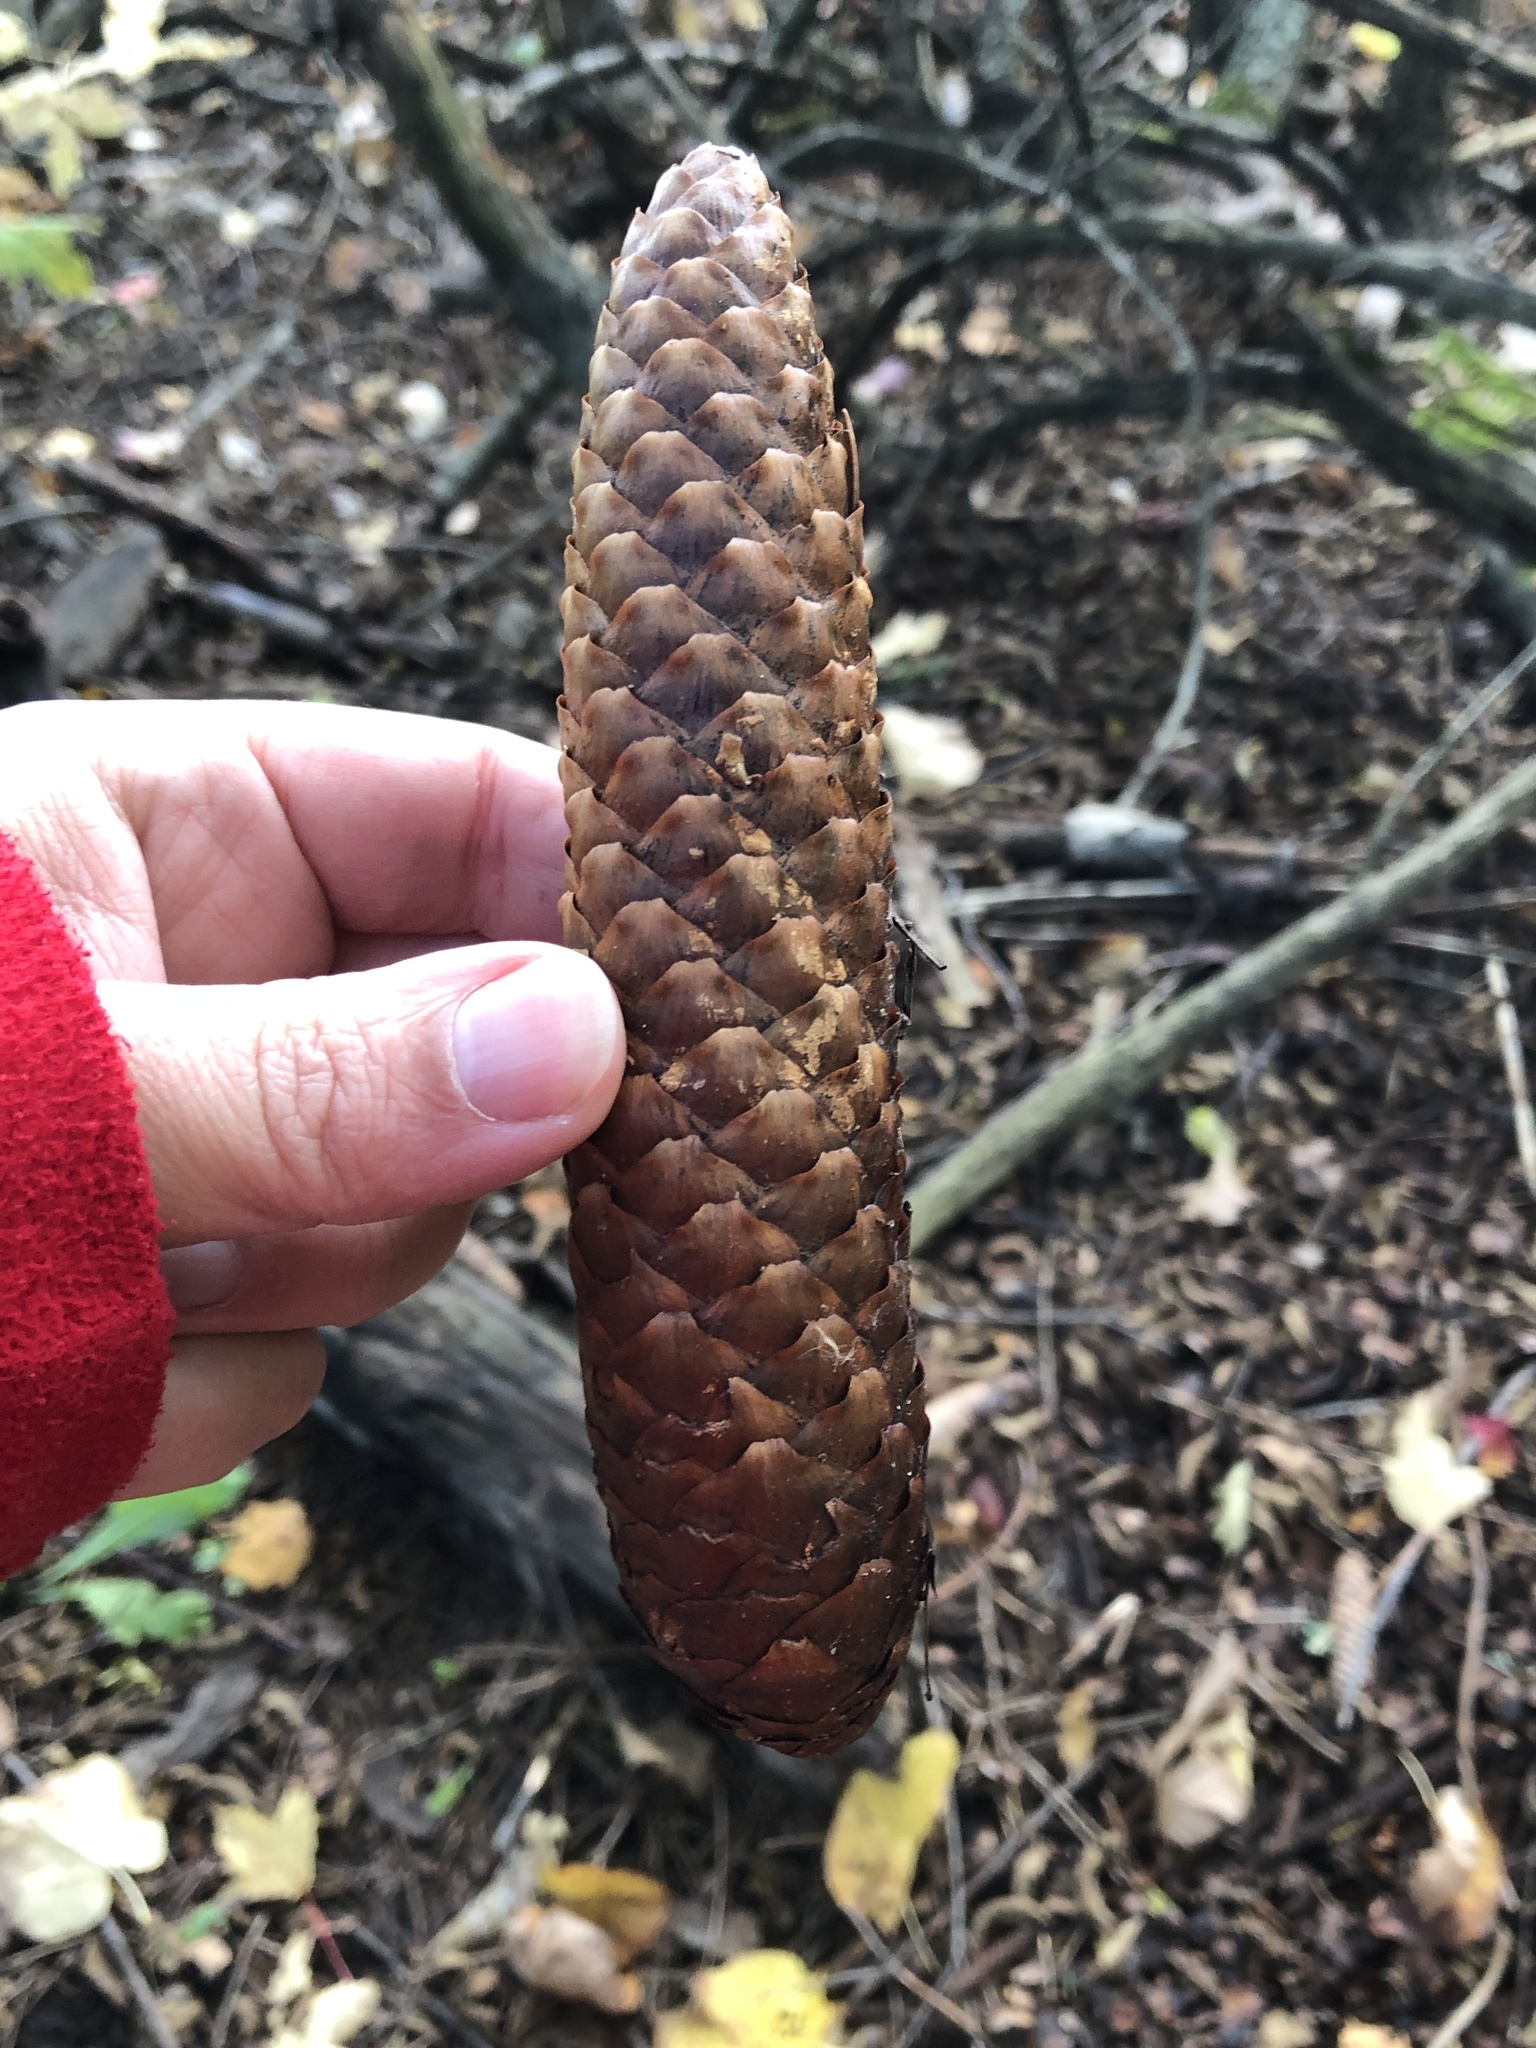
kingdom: Plantae
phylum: Tracheophyta
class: Pinopsida
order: Pinales
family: Pinaceae
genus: Picea
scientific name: Picea abies
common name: Norway spruce
